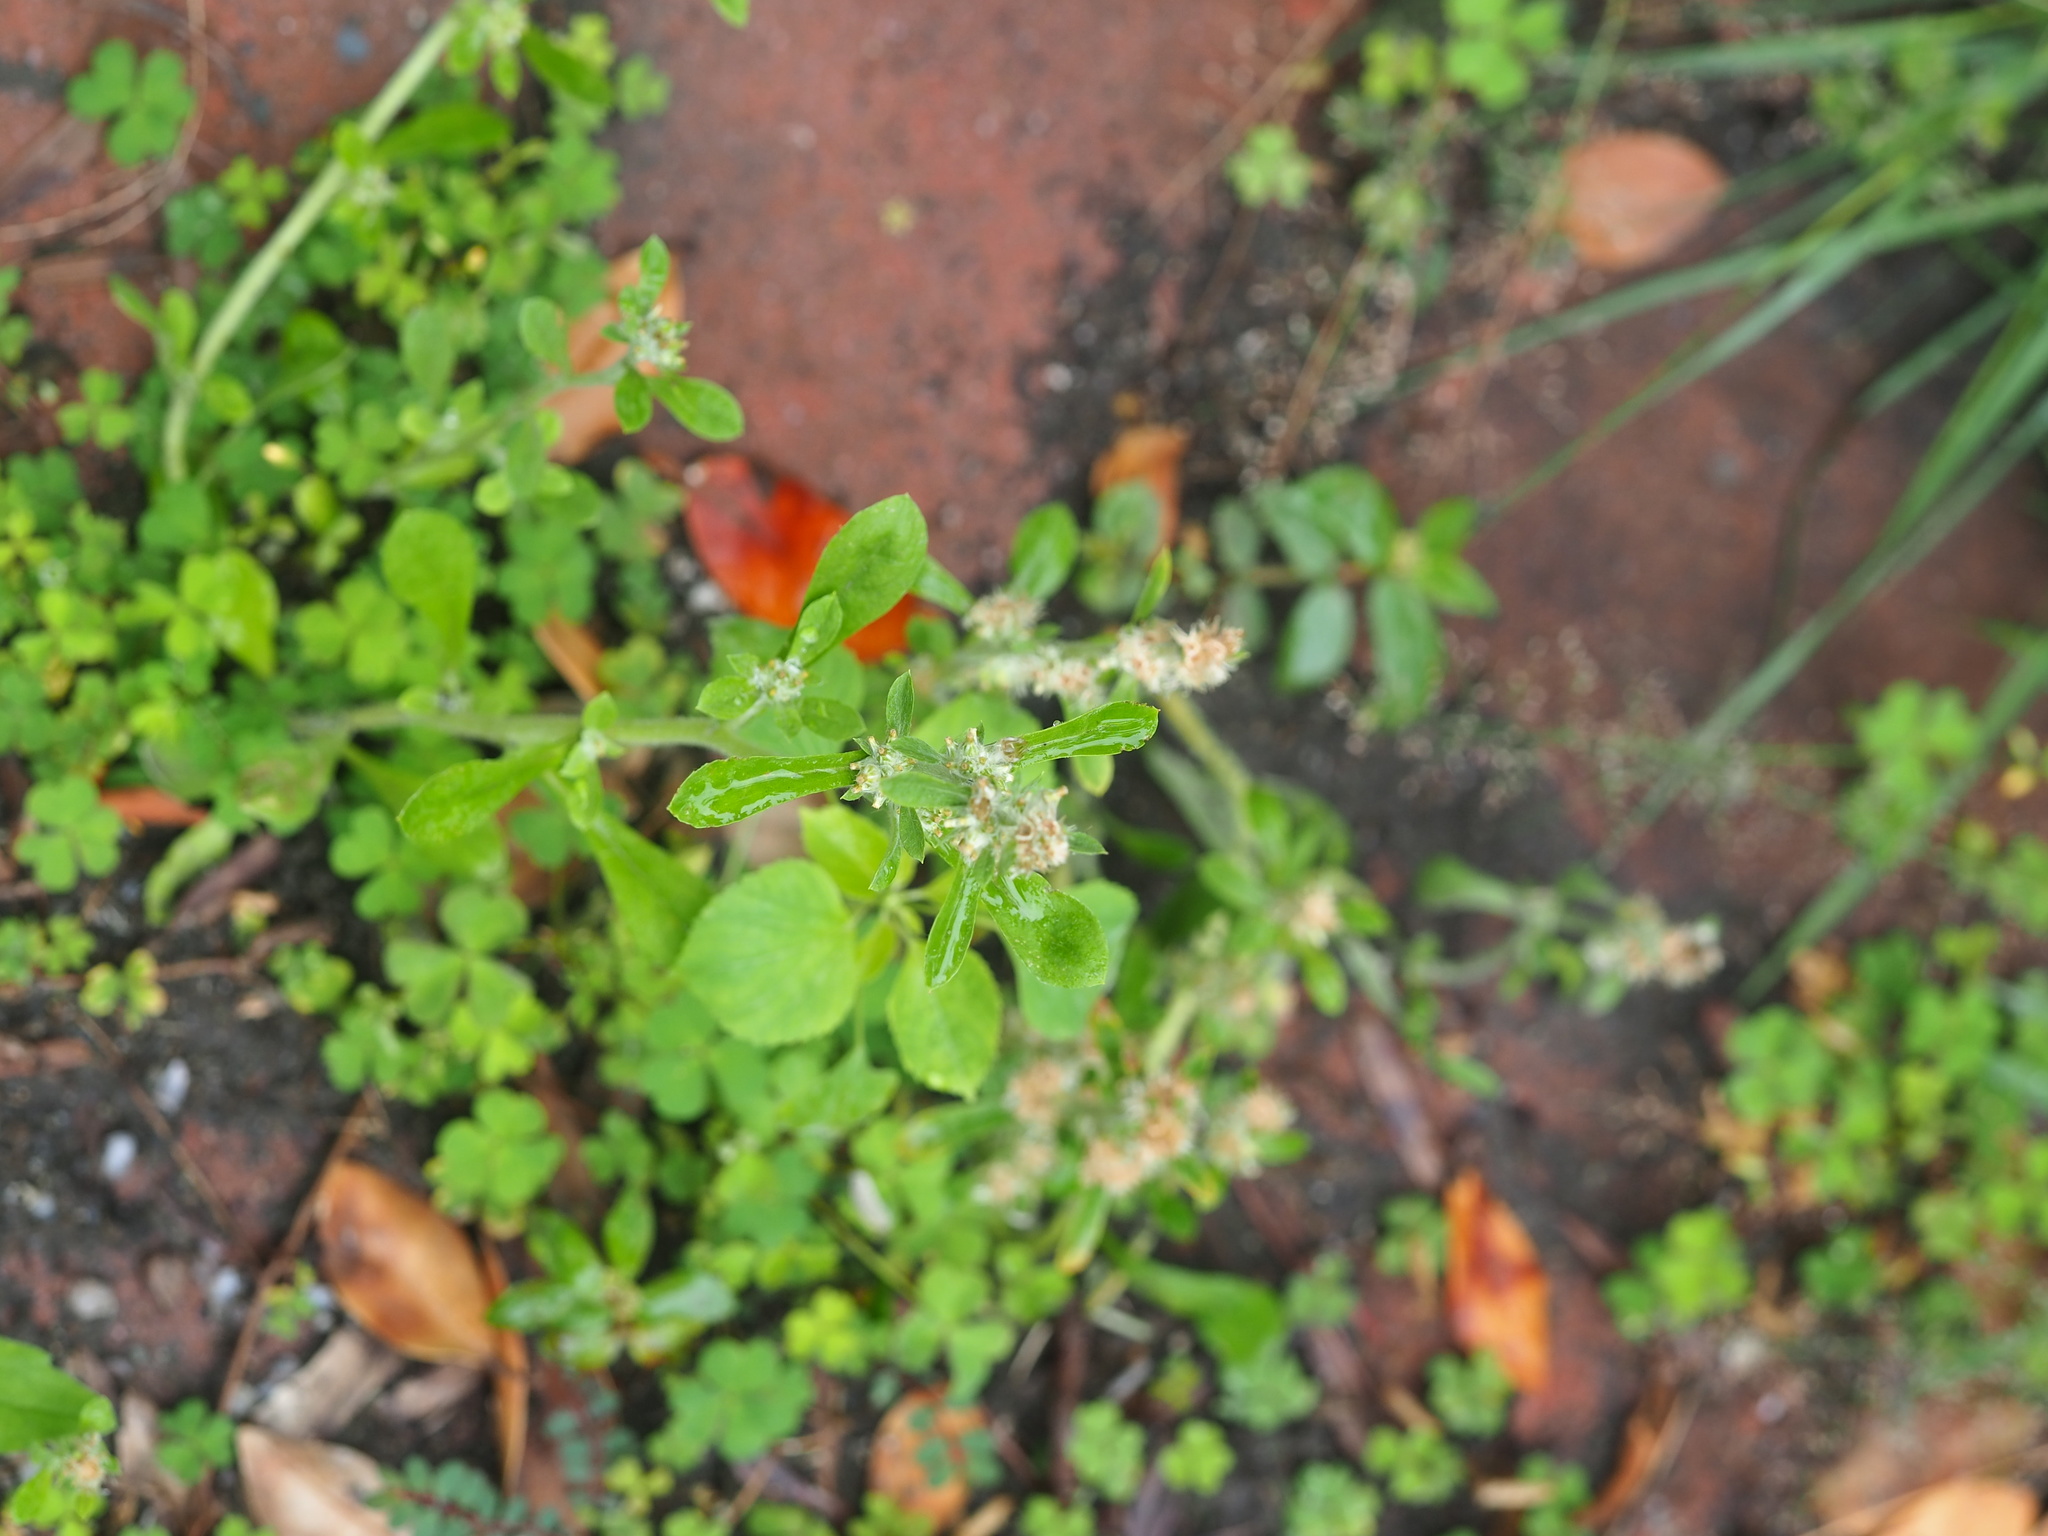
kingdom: Plantae
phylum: Tracheophyta
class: Magnoliopsida
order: Asterales
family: Asteraceae
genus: Gamochaeta
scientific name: Gamochaeta purpurea
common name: Purple cudweed
